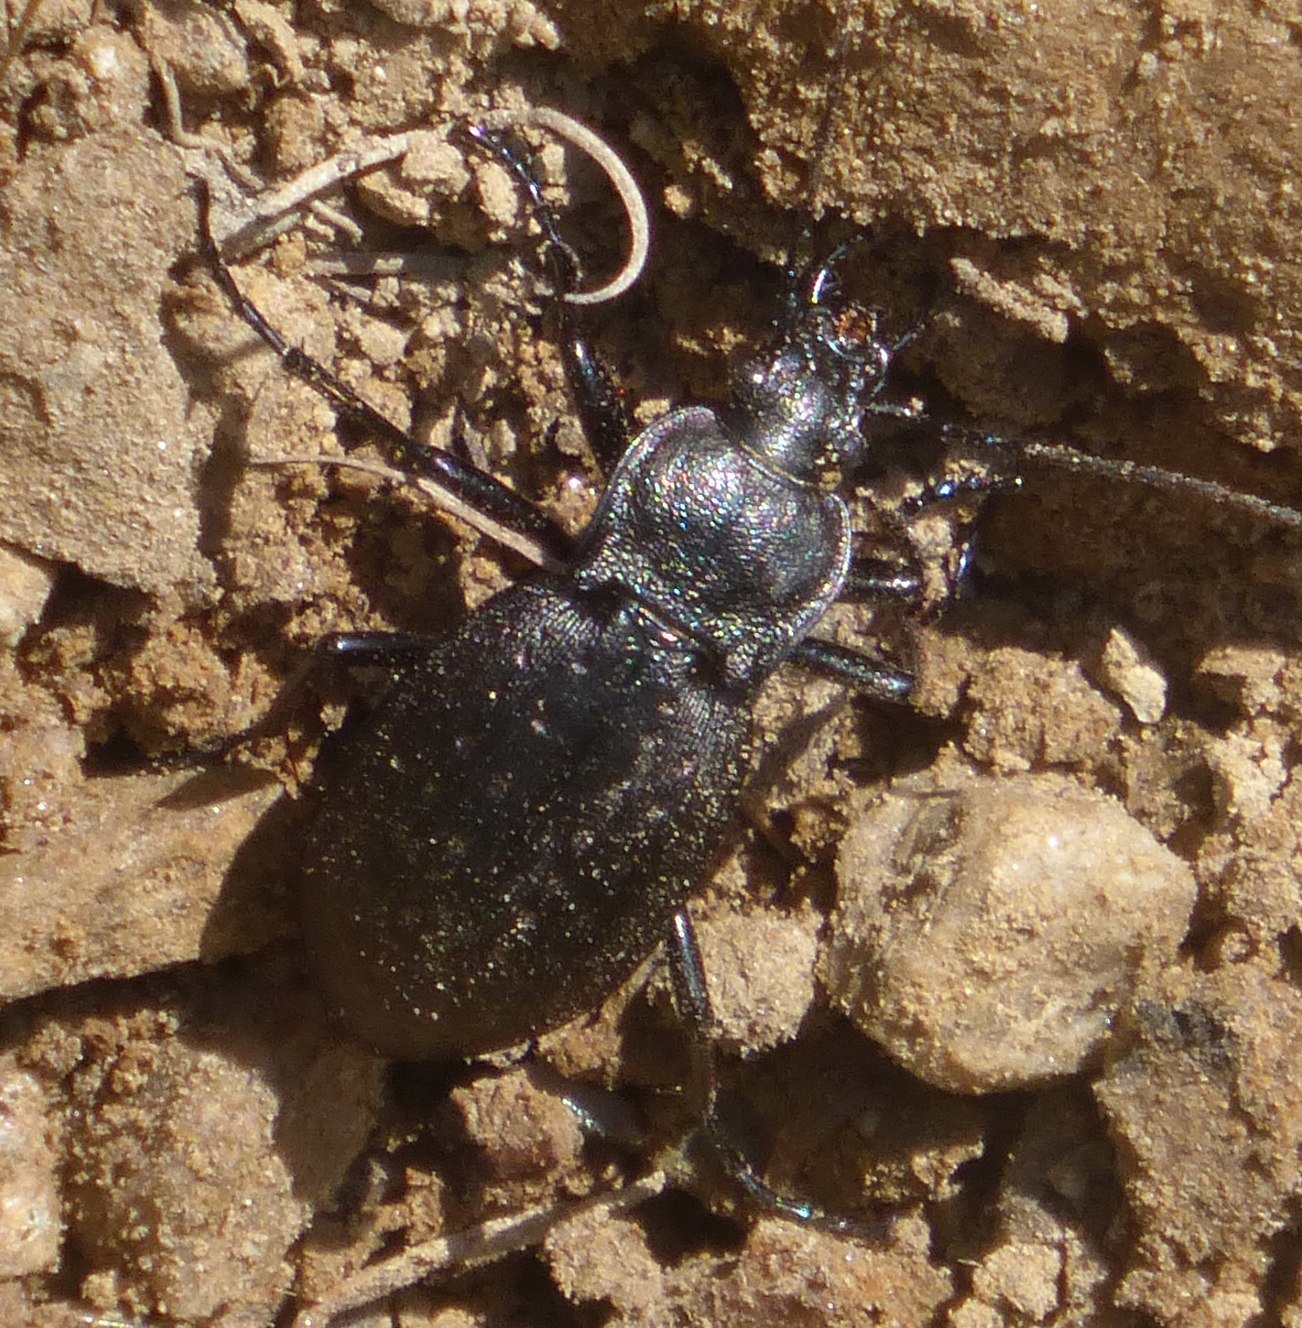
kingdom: Animalia
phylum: Arthropoda
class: Insecta
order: Coleoptera
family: Carabidae
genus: Carabus
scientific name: Carabus sylvestris
